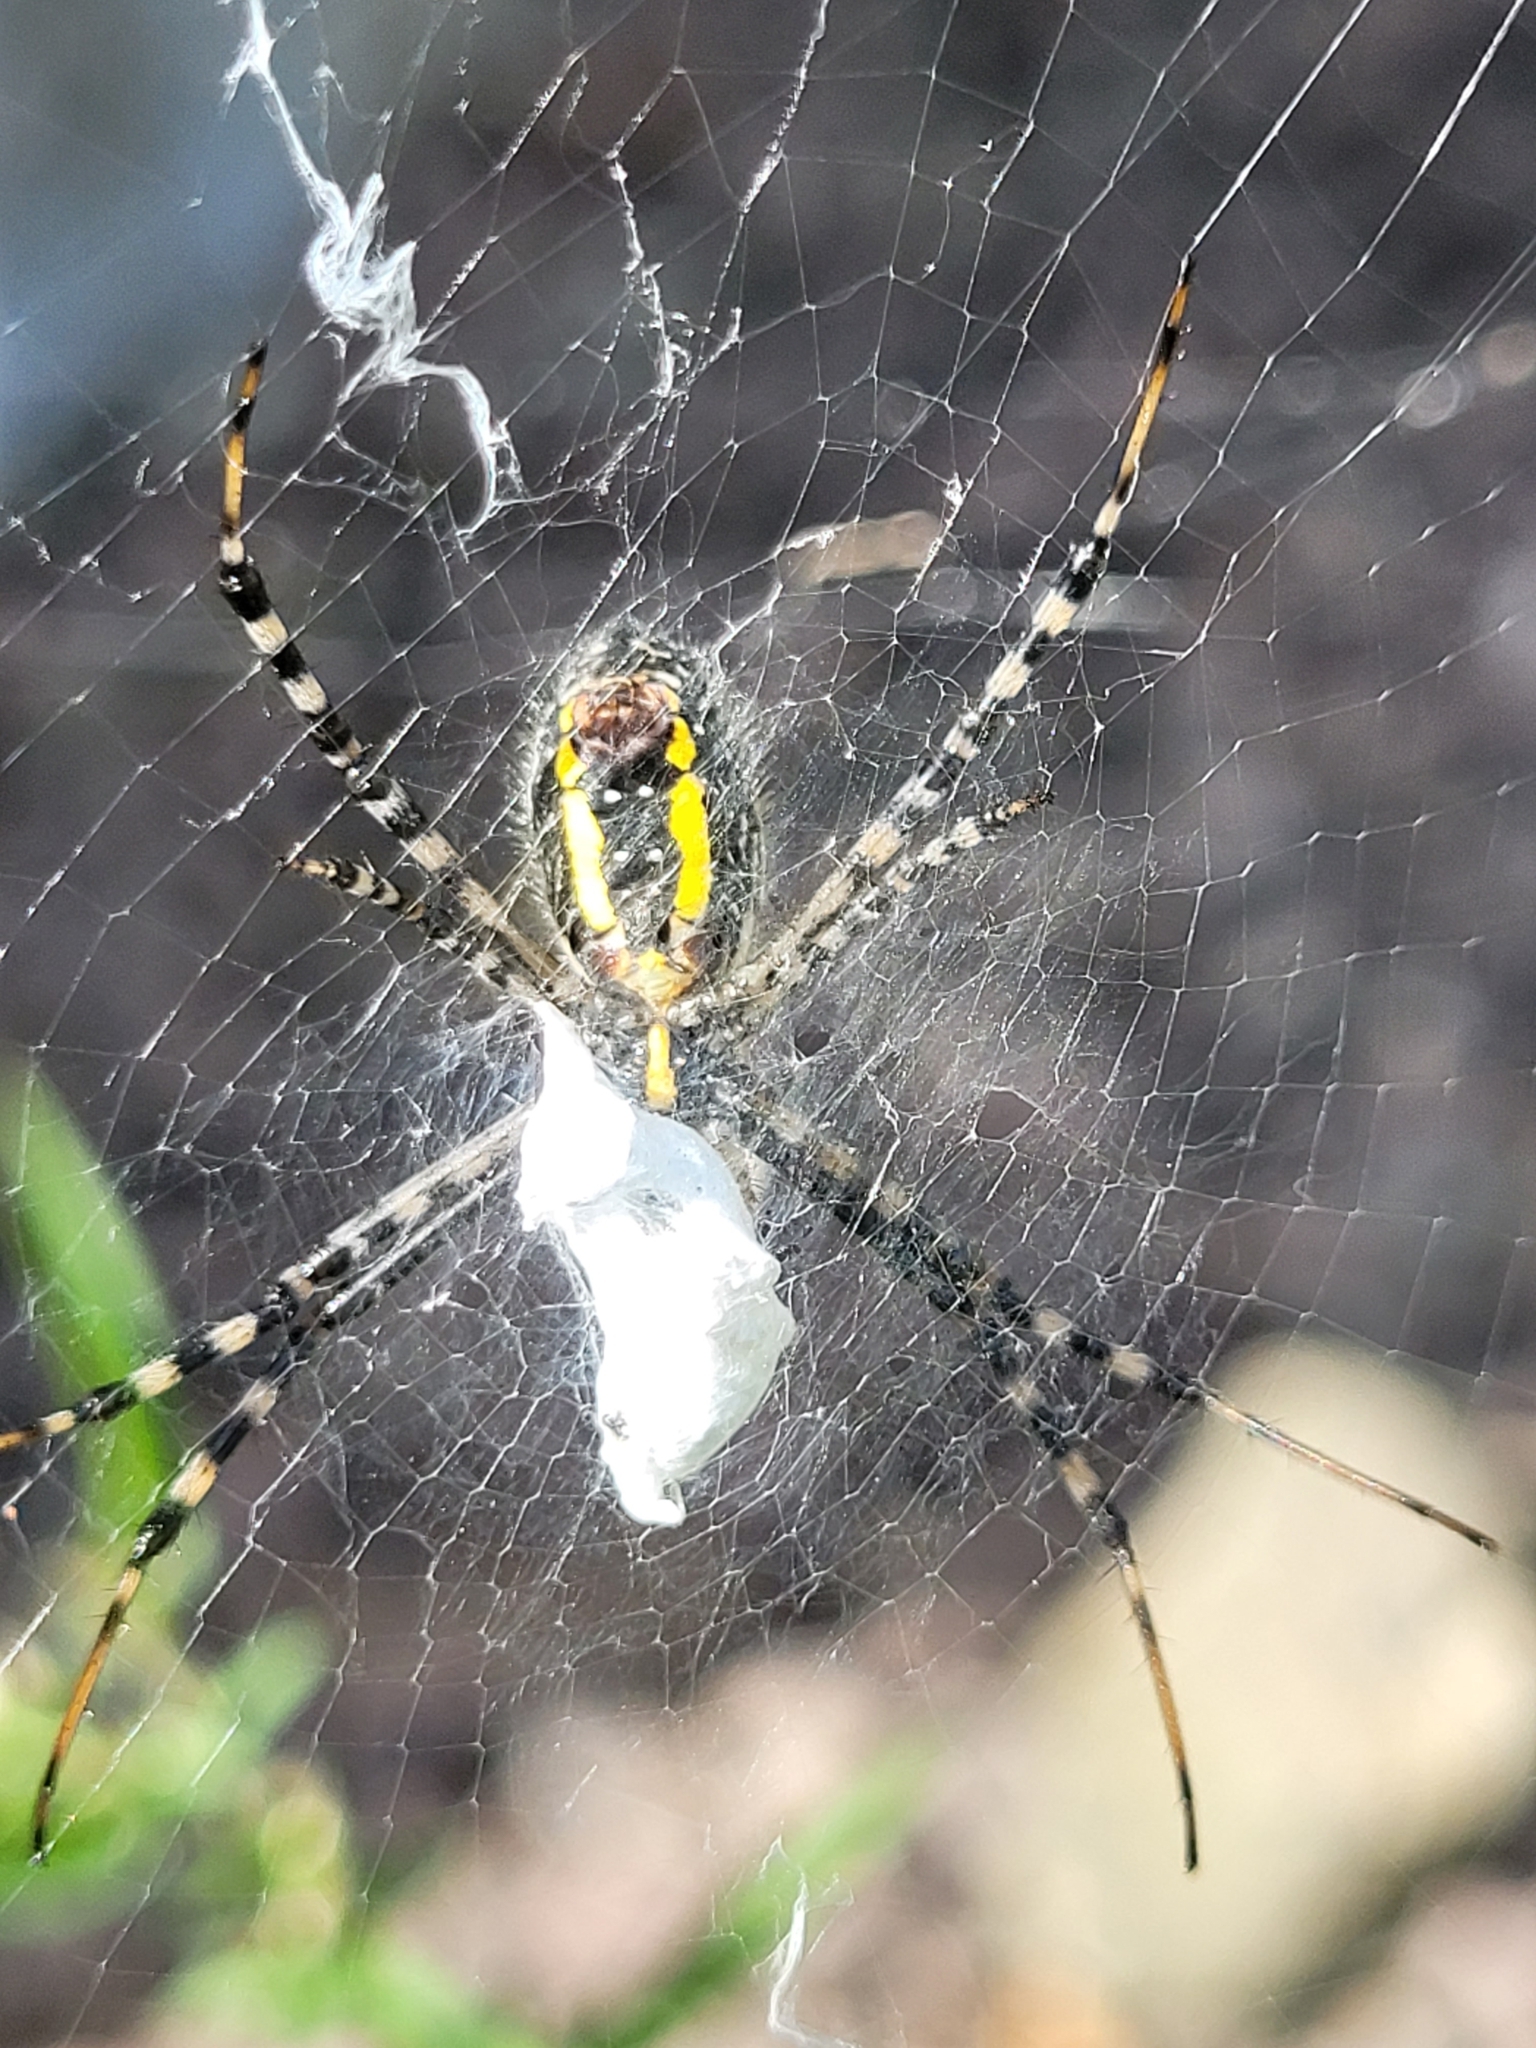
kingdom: Animalia
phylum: Arthropoda
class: Arachnida
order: Araneae
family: Araneidae
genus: Argiope
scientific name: Argiope trifasciata
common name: Banded garden spider
